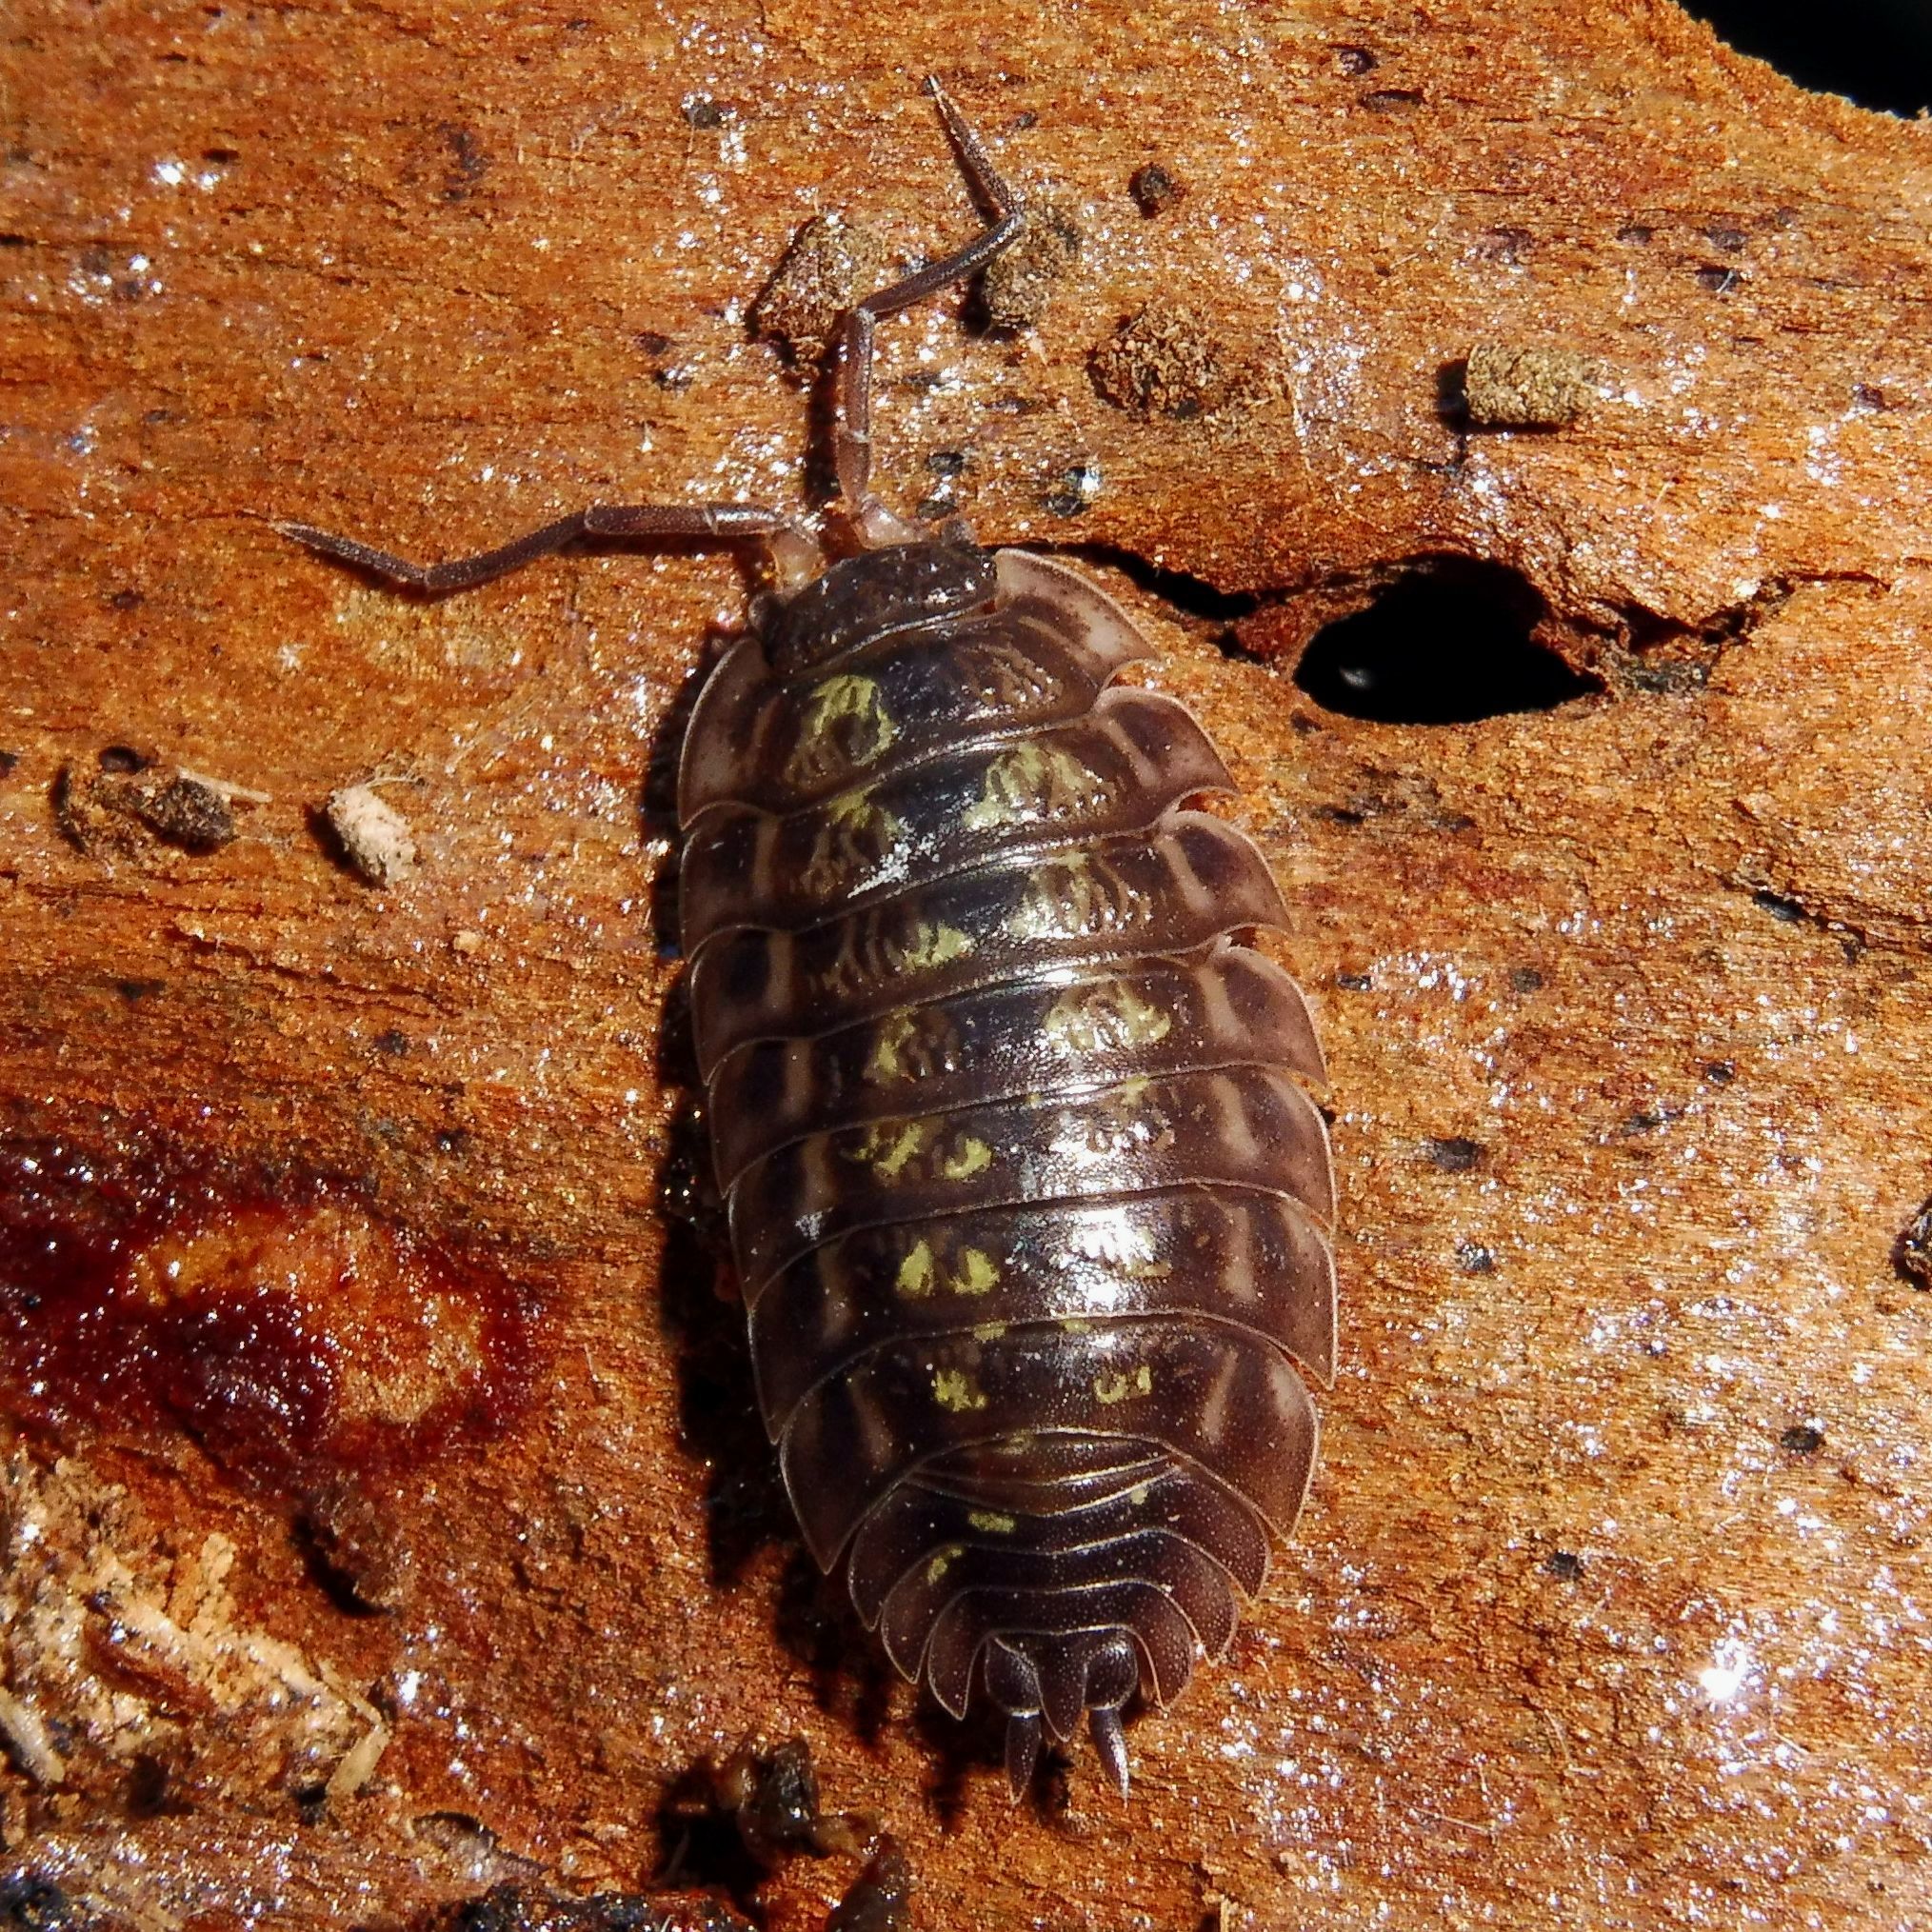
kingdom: Animalia
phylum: Arthropoda
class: Malacostraca
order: Isopoda
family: Oniscidae
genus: Oniscus
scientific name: Oniscus asellus
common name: Common shiny woodlouse
